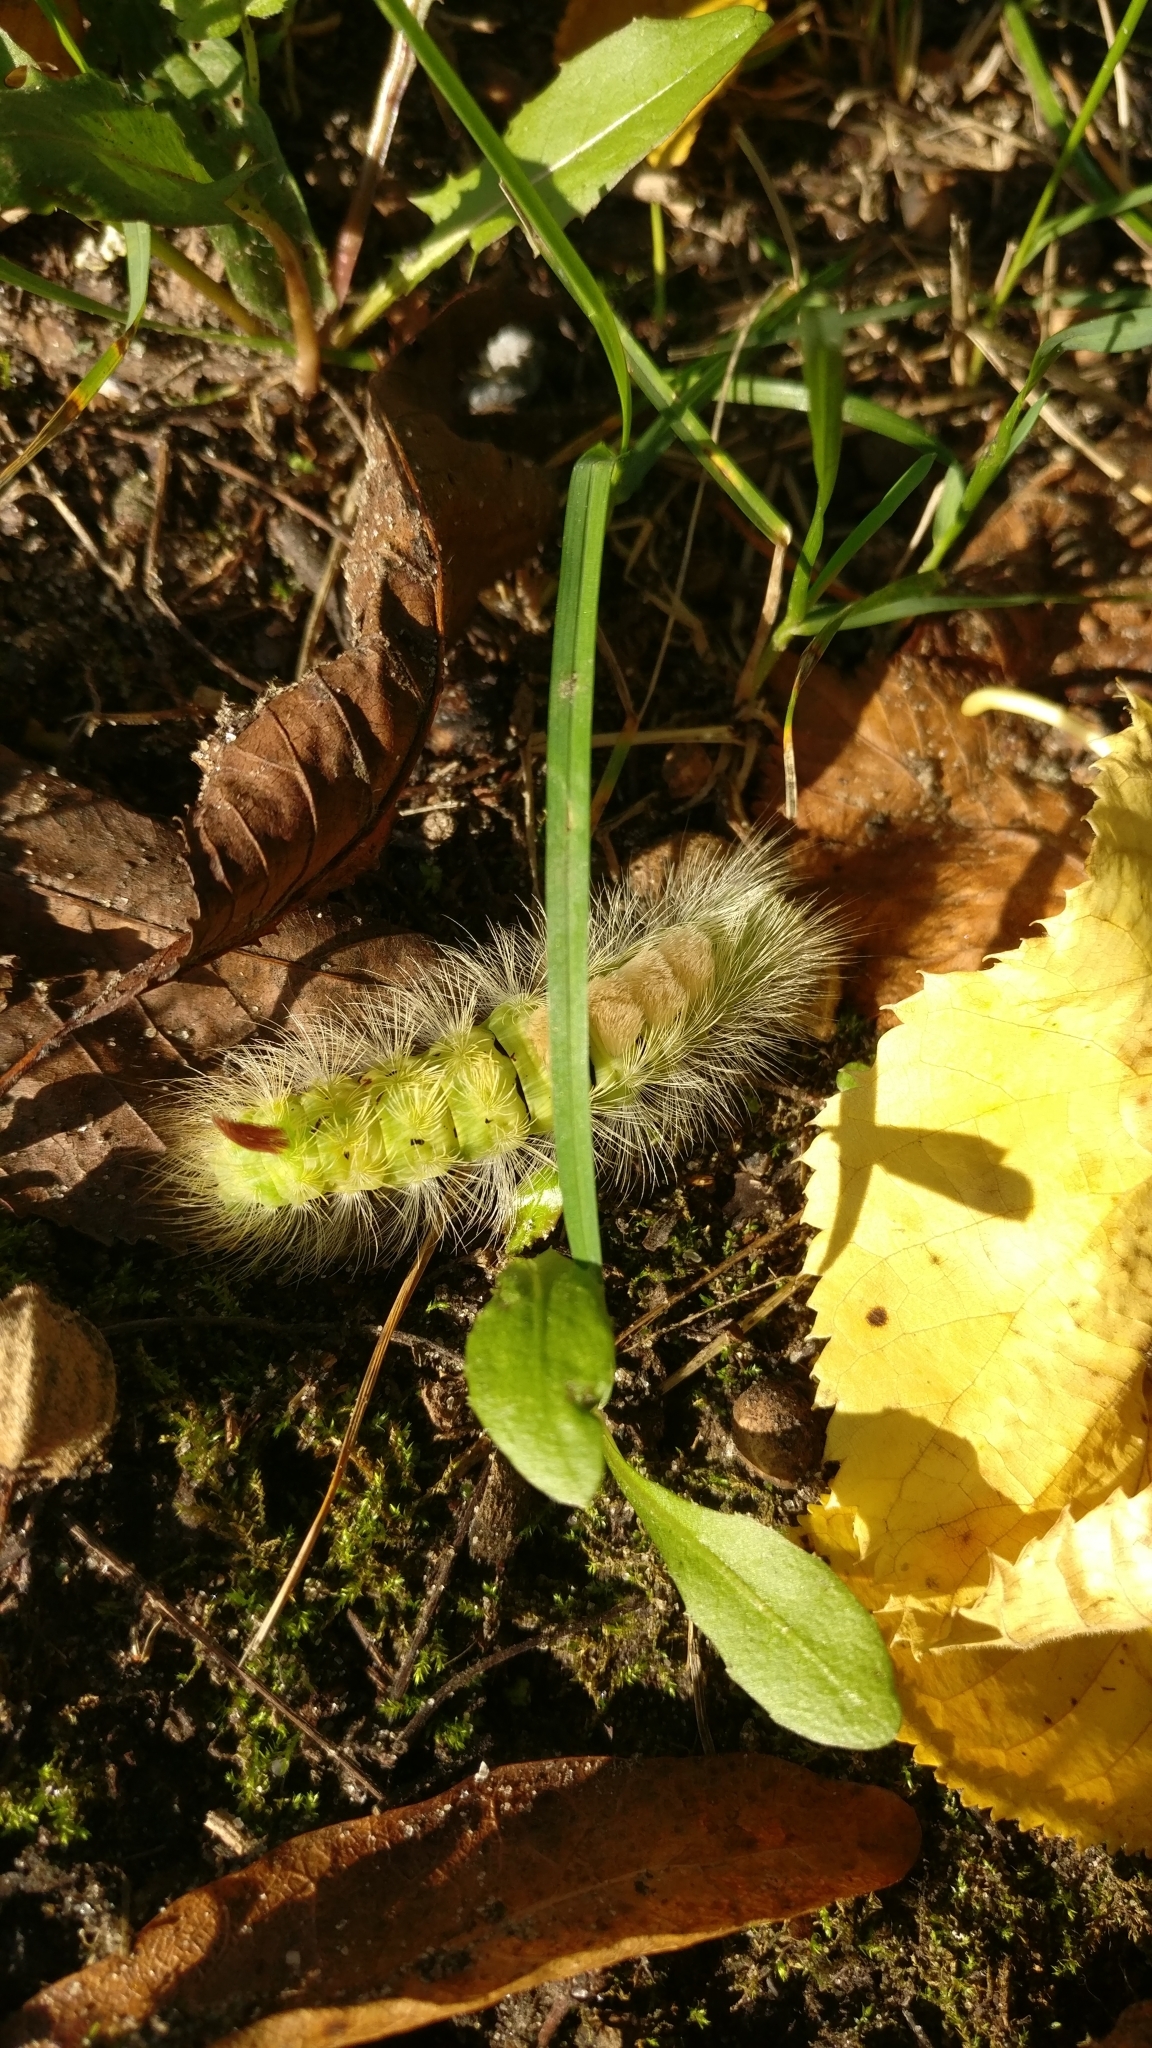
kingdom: Animalia
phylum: Arthropoda
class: Insecta
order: Lepidoptera
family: Erebidae
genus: Calliteara
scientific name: Calliteara pudibunda
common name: Pale tussock
